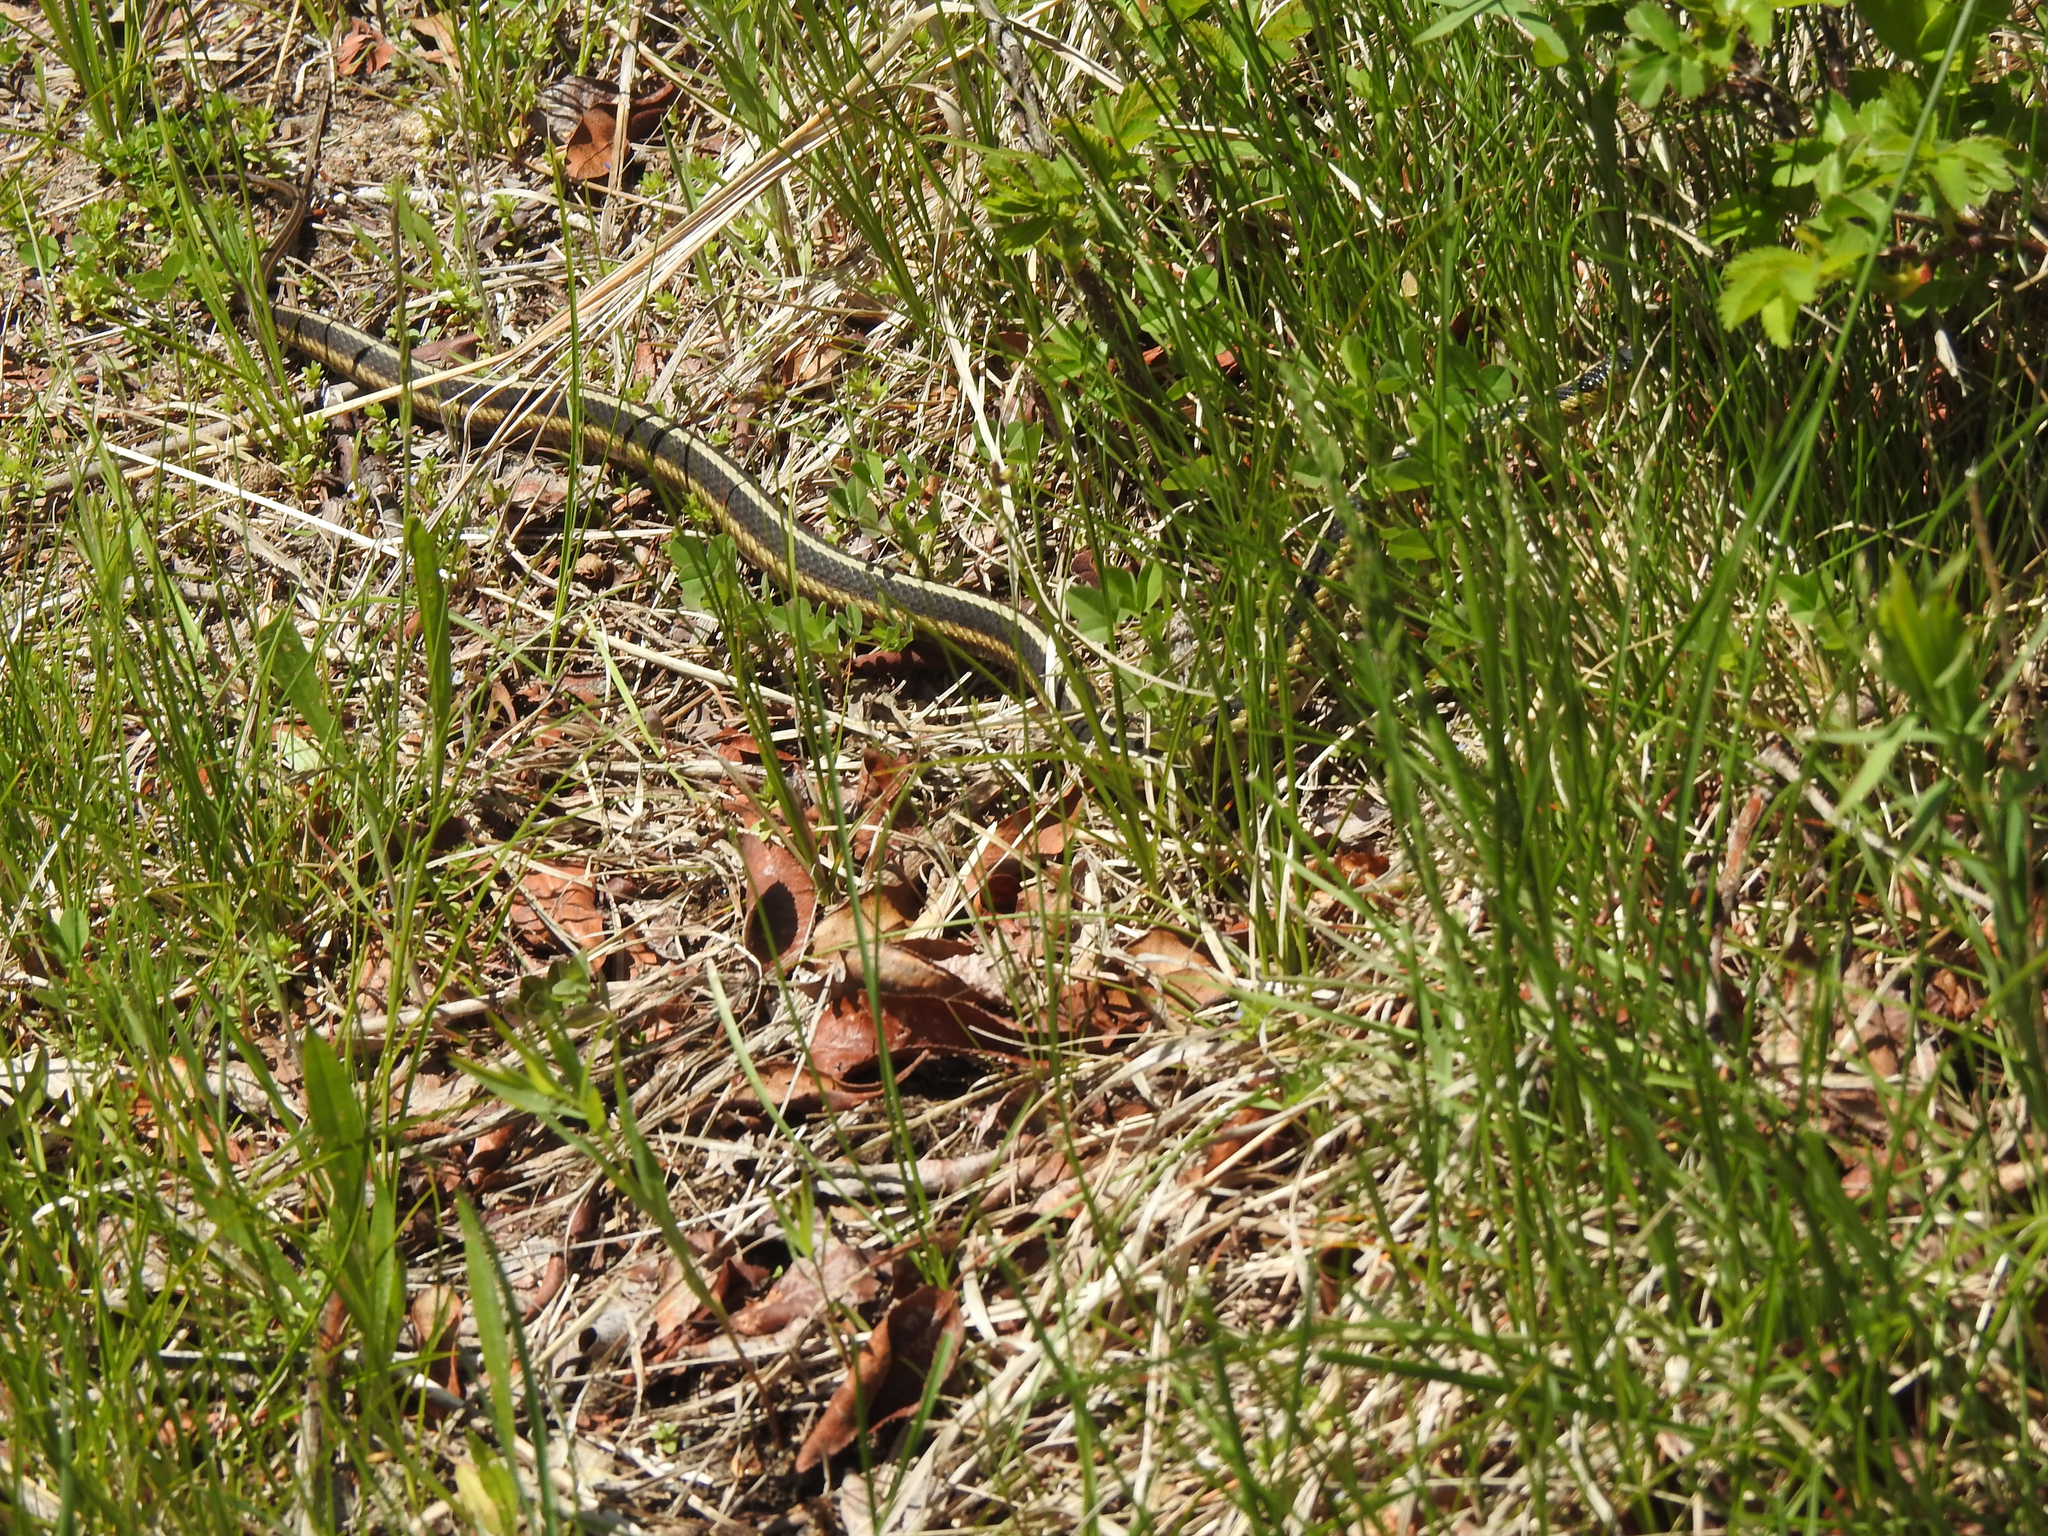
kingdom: Animalia
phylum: Chordata
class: Squamata
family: Colubridae
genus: Thamnophis
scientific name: Thamnophis sirtalis
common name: Common garter snake
